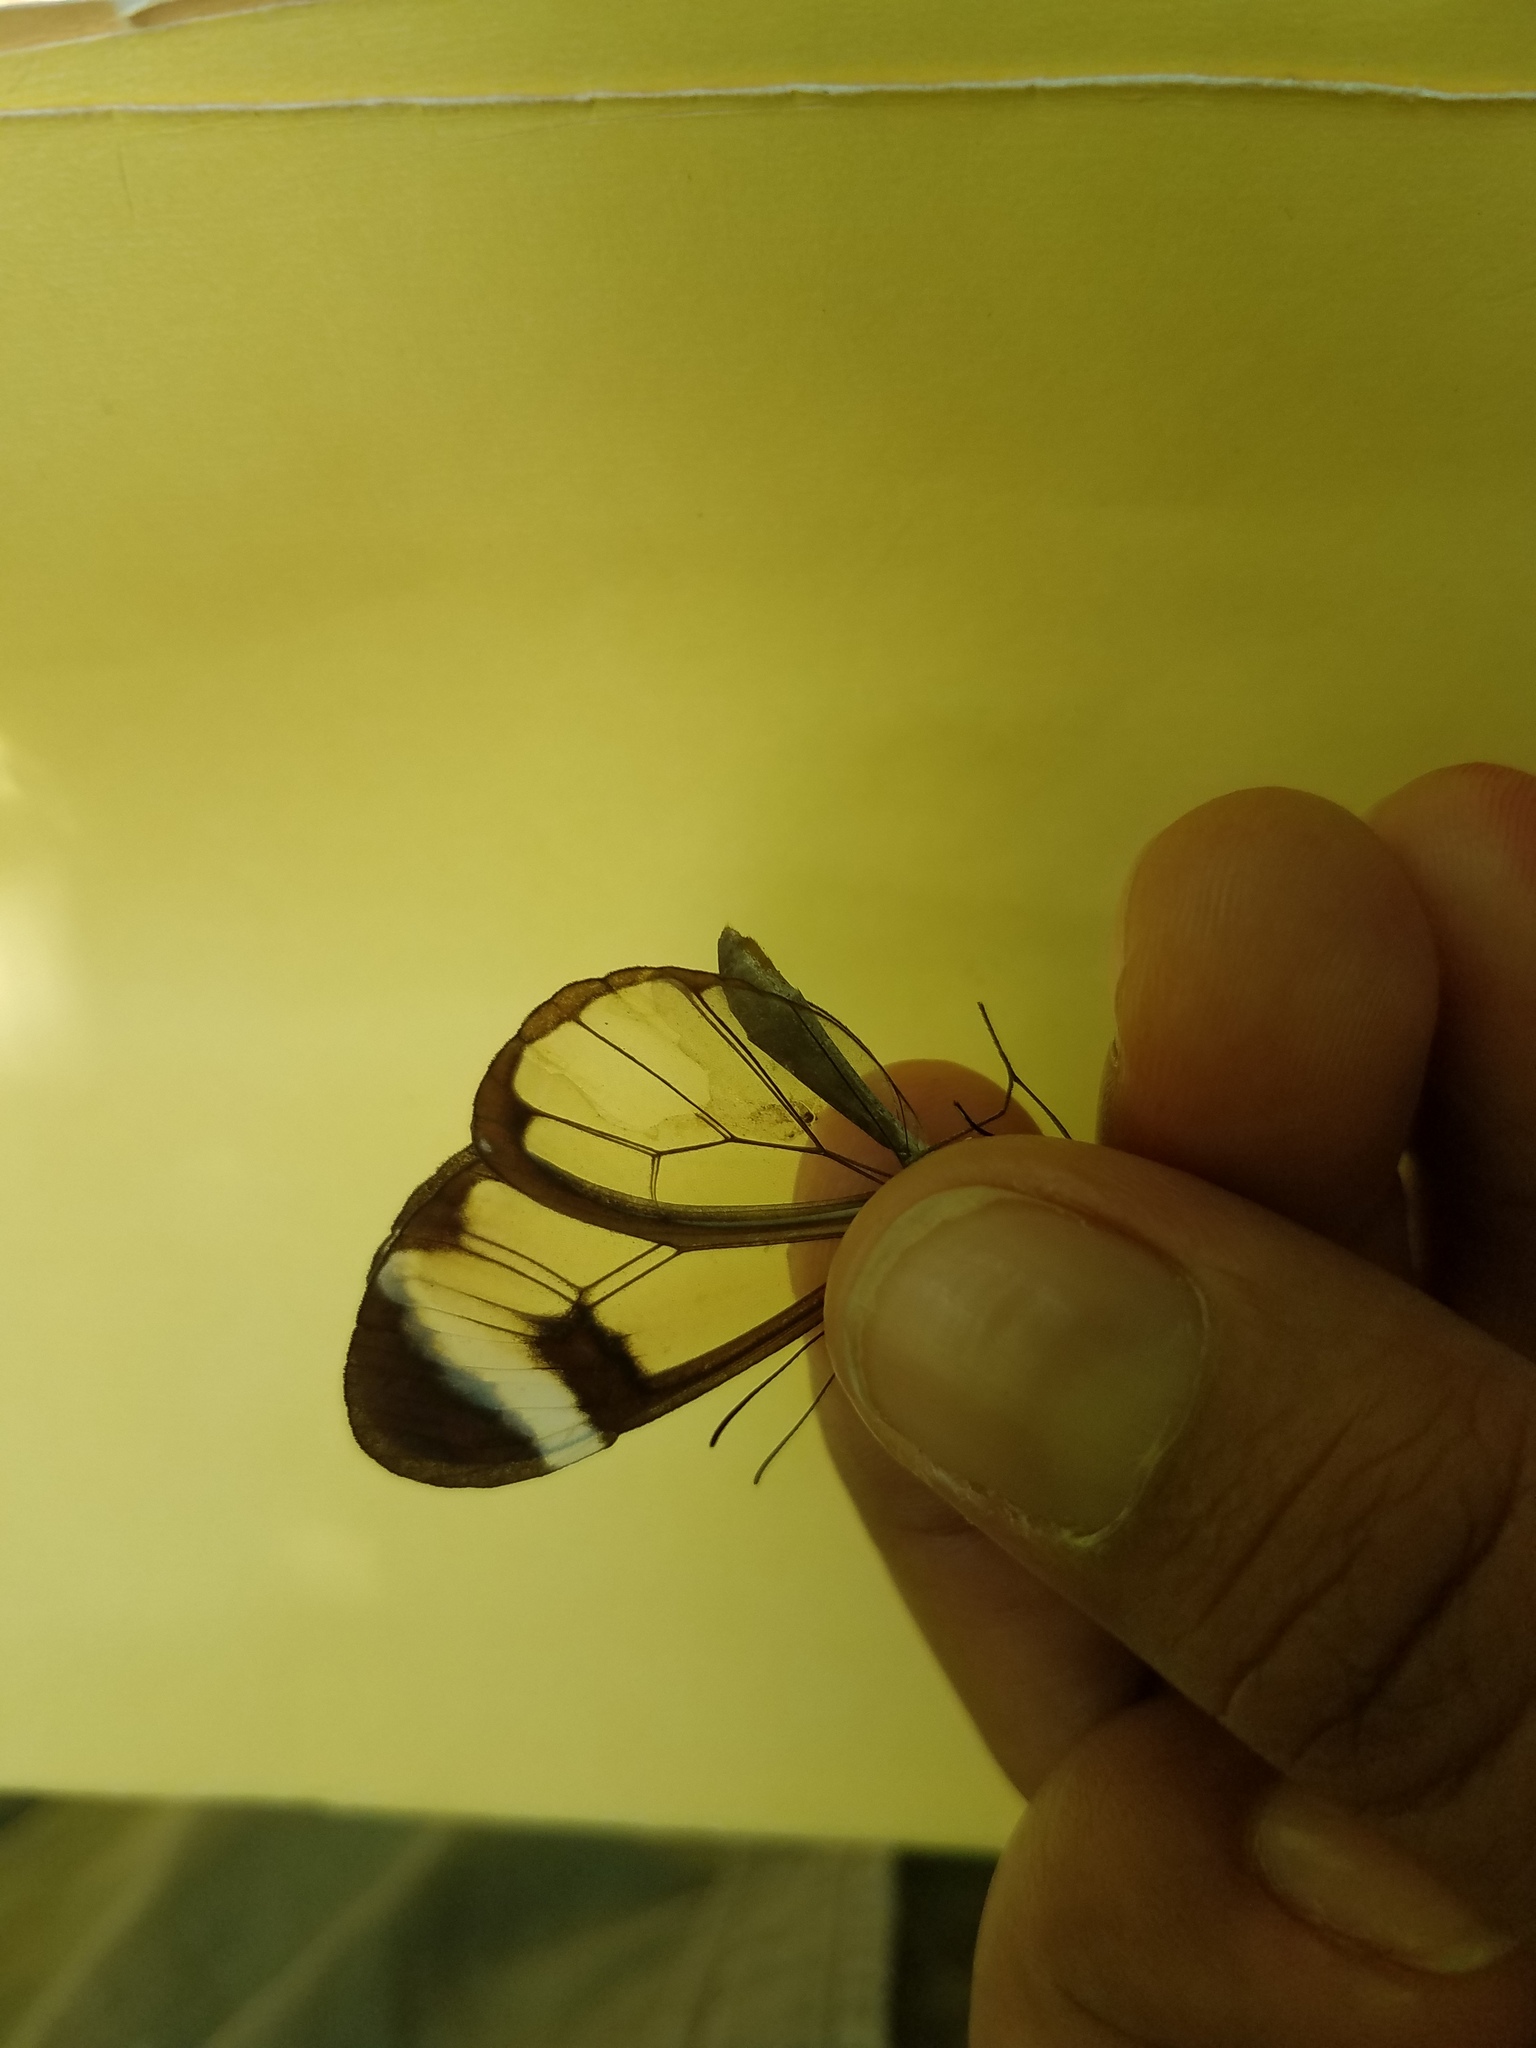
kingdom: Animalia
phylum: Arthropoda
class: Insecta
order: Lepidoptera
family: Nymphalidae
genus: Greta
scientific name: Greta morgane
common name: Thick-tipped greta
